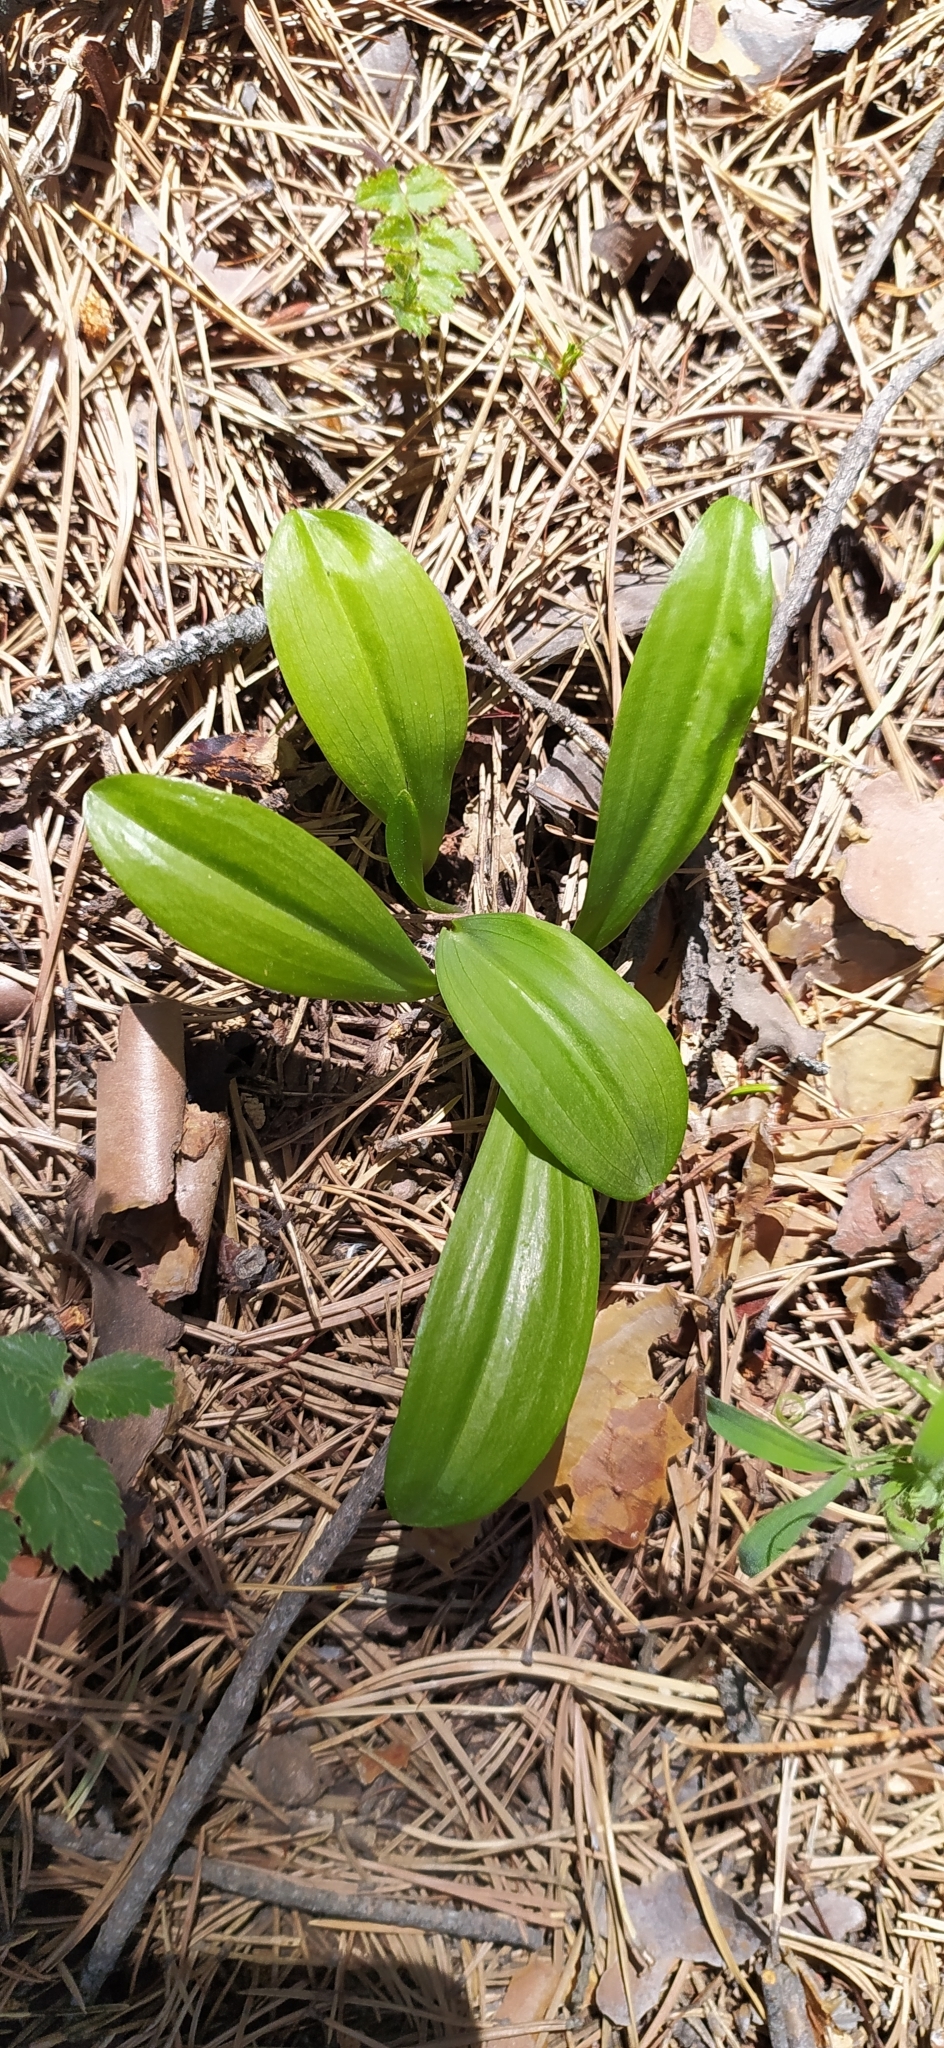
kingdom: Plantae
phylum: Tracheophyta
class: Liliopsida
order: Asparagales
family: Orchidaceae
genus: Platanthera
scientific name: Platanthera bifolia
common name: Lesser butterfly-orchid
